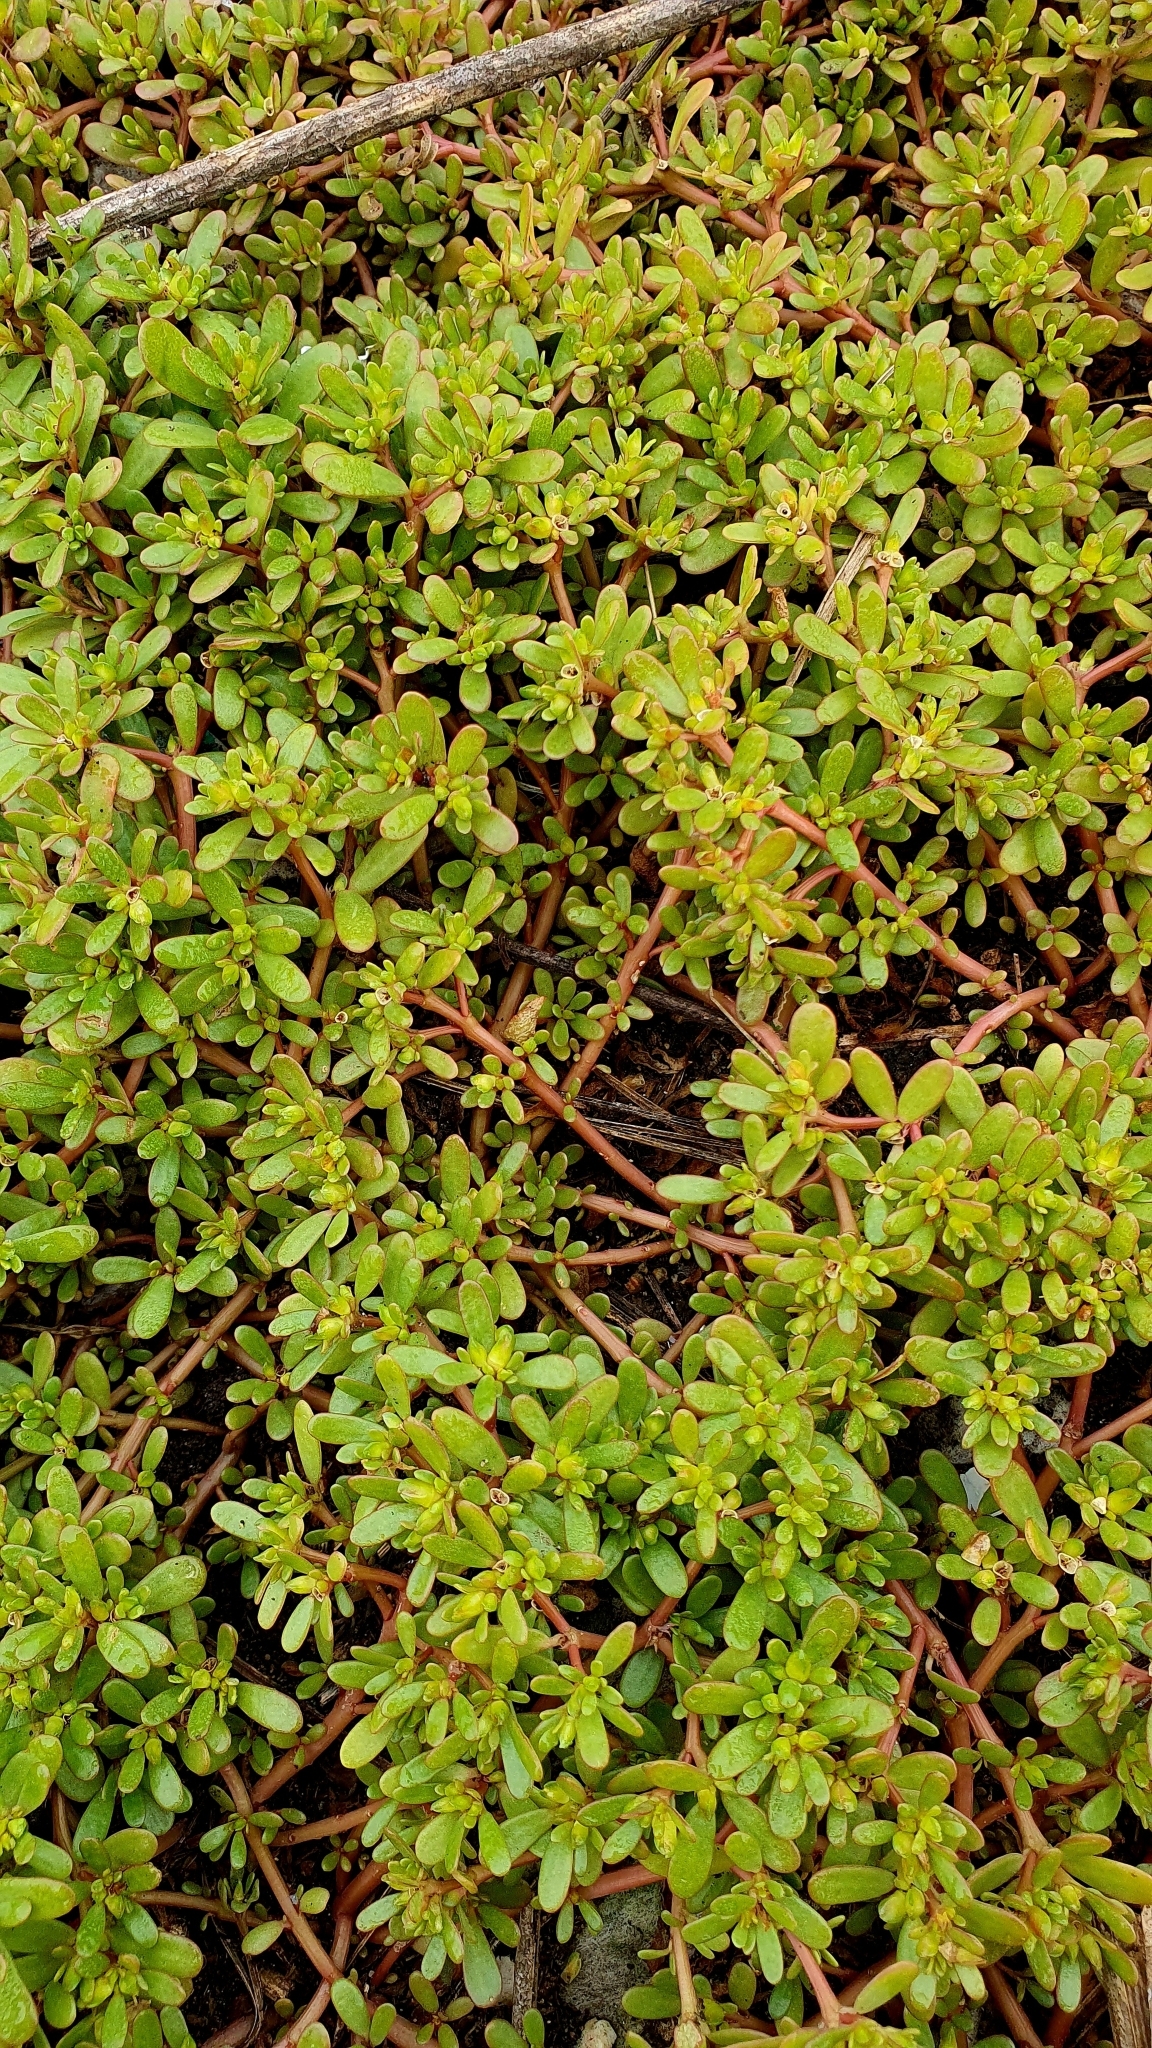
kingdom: Plantae
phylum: Tracheophyta
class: Magnoliopsida
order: Caryophyllales
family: Portulacaceae
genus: Portulaca
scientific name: Portulaca oleracea
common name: Common purslane
